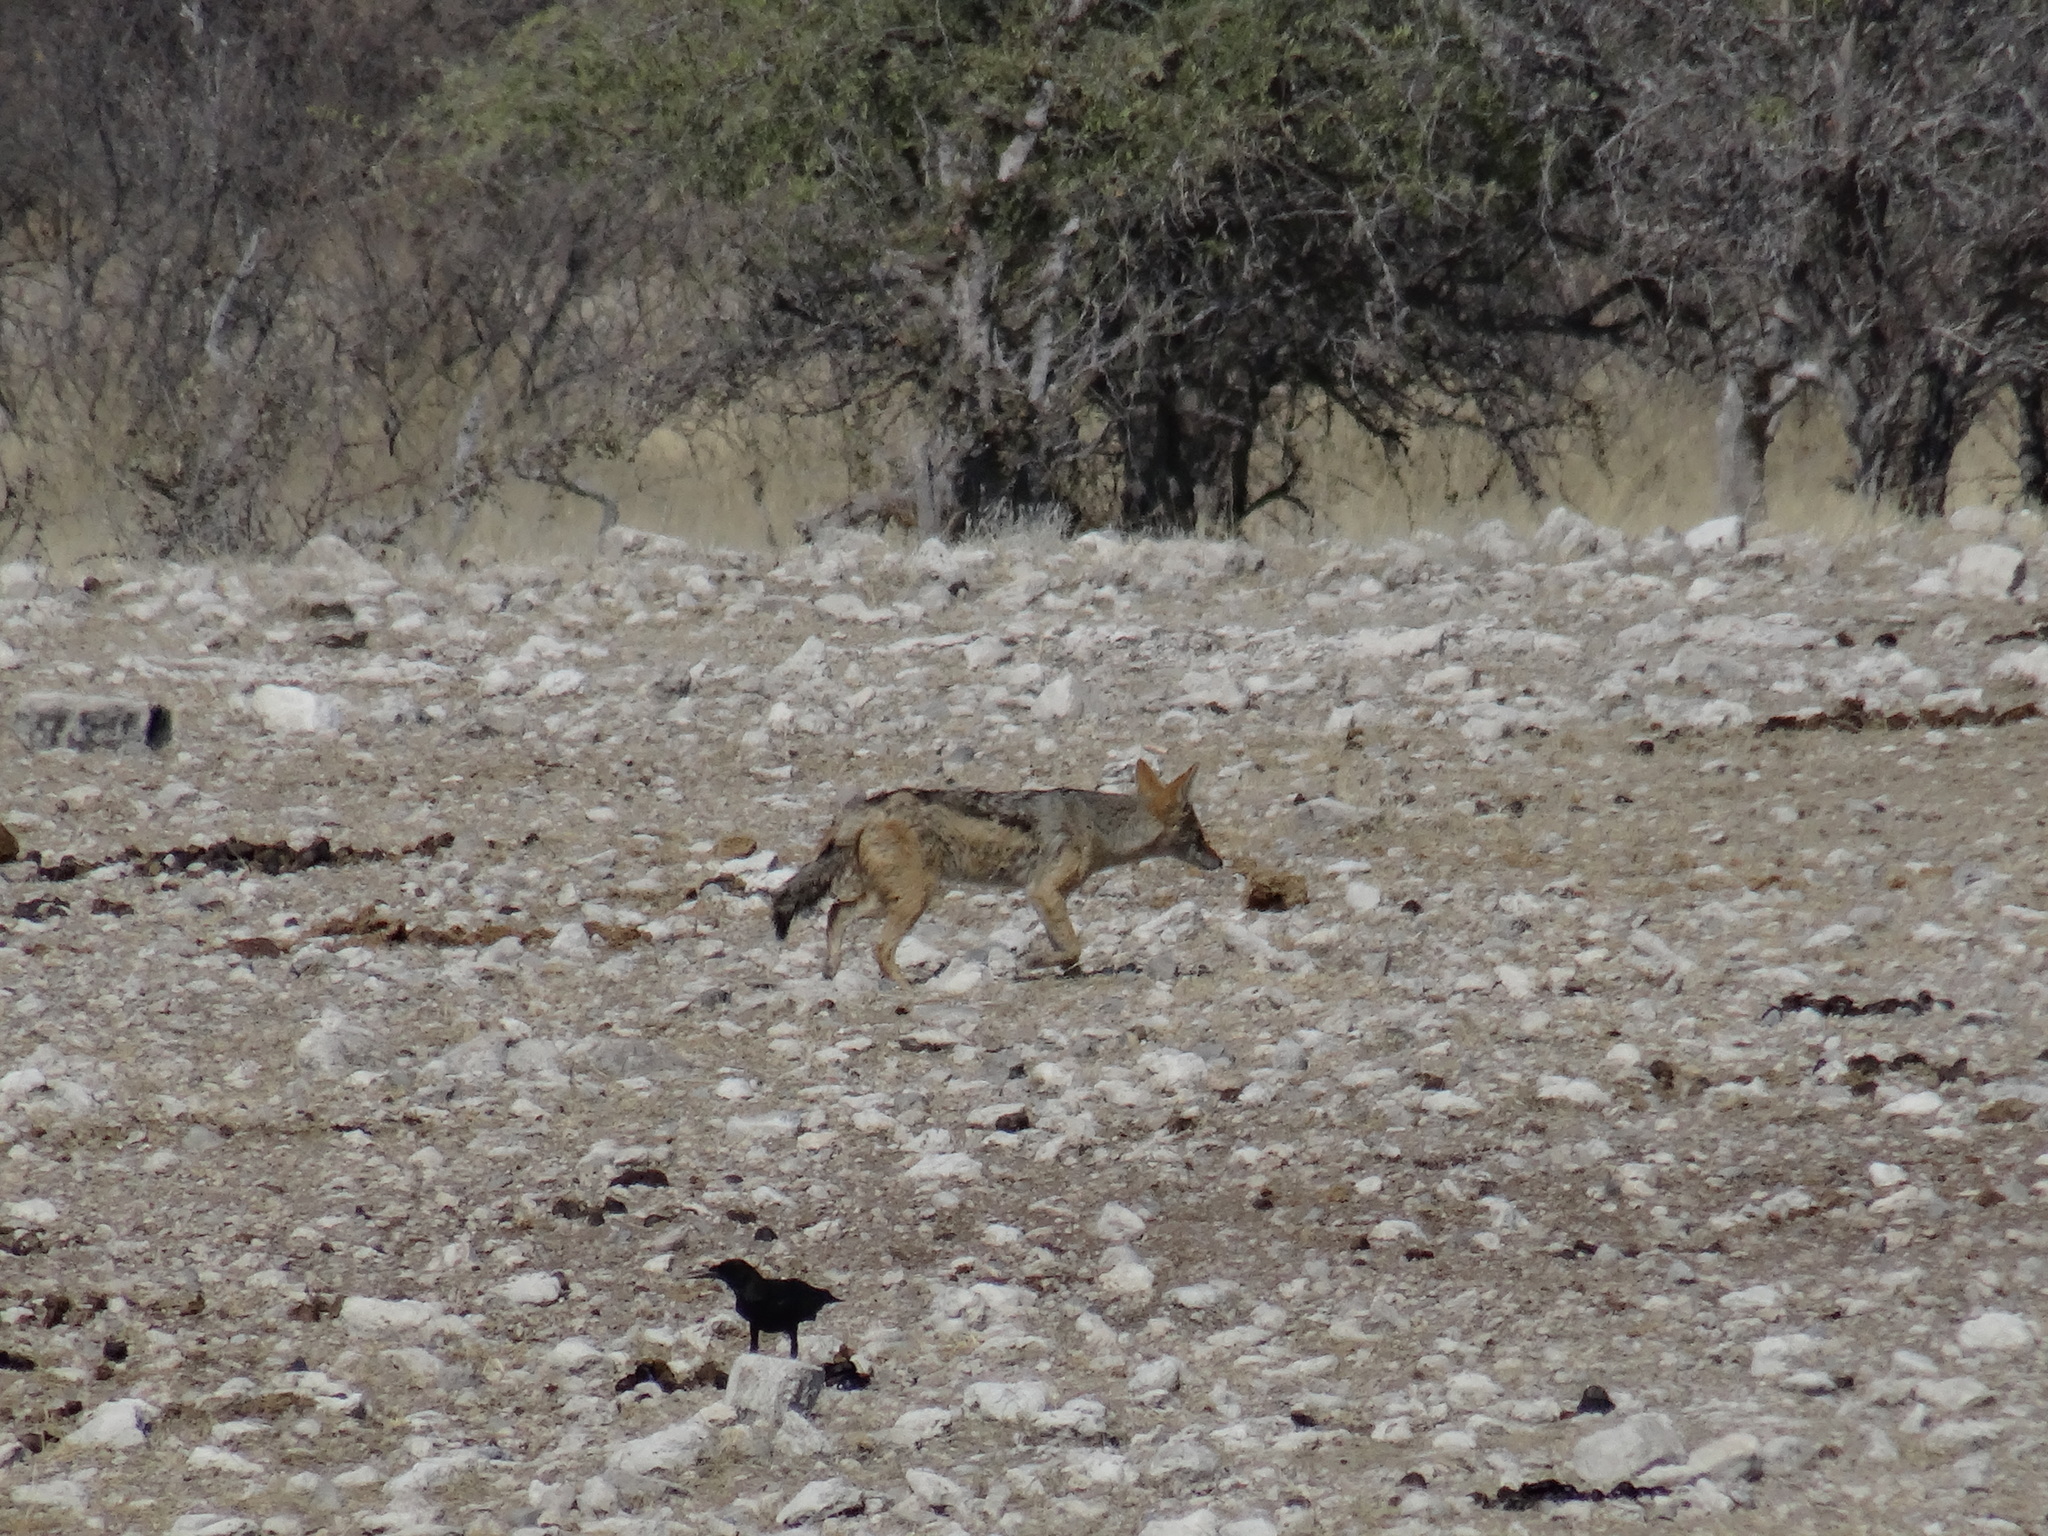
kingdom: Animalia
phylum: Chordata
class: Mammalia
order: Carnivora
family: Canidae
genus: Lupulella
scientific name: Lupulella
